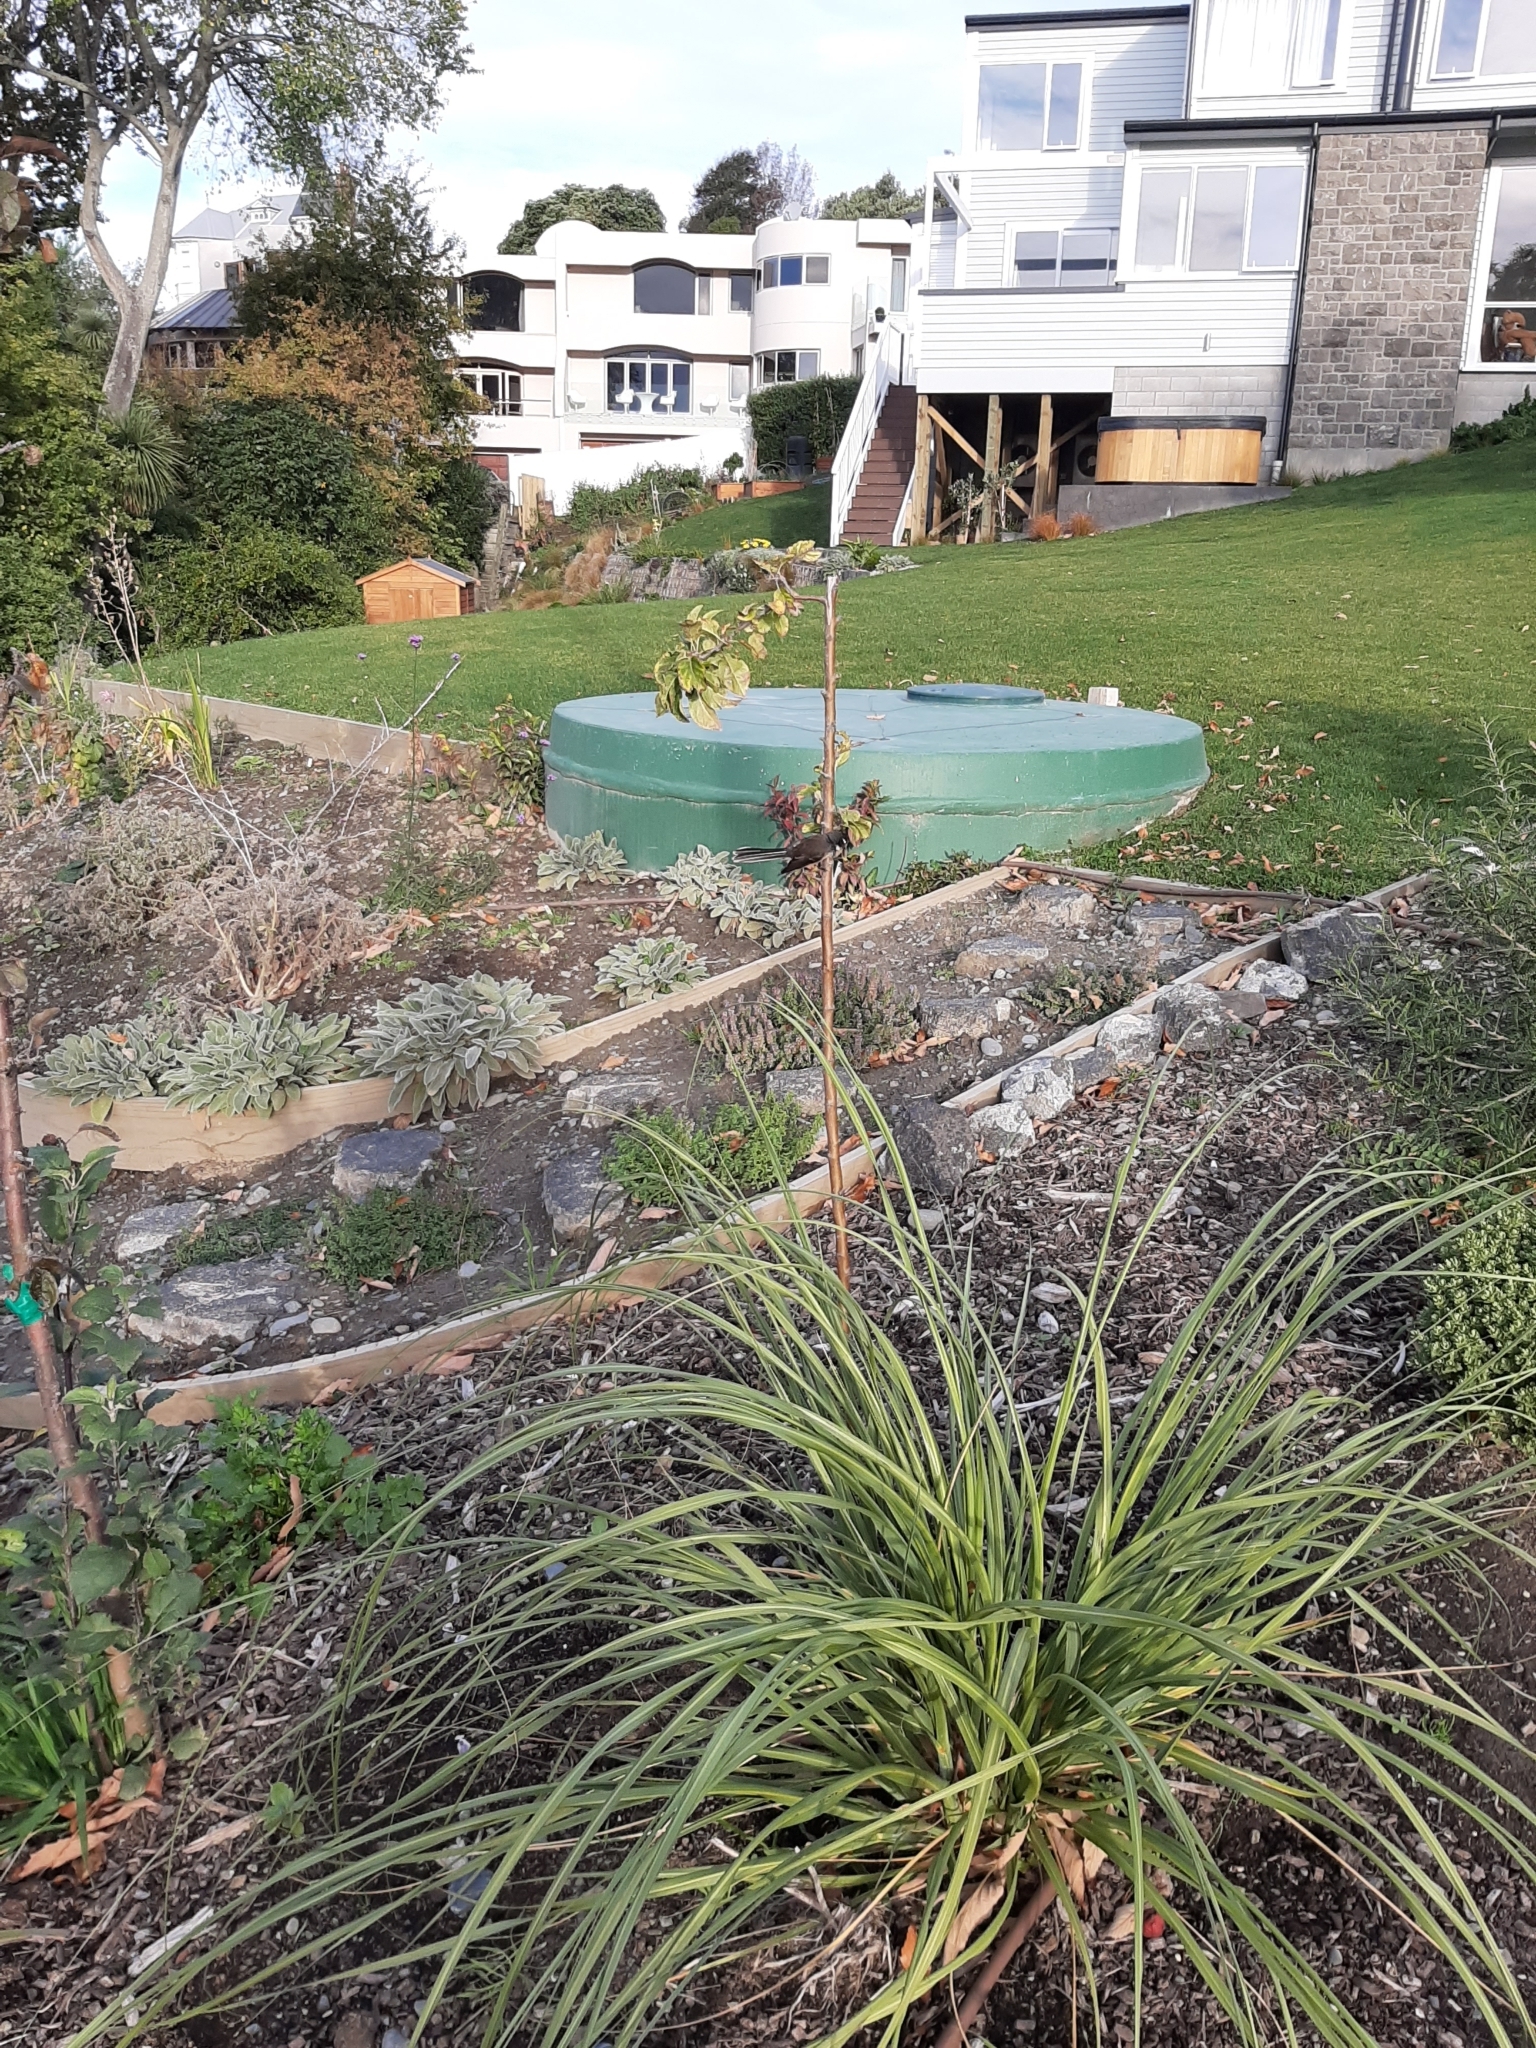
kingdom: Animalia
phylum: Chordata
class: Aves
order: Passeriformes
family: Rhipiduridae
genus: Rhipidura
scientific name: Rhipidura fuliginosa
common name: New zealand fantail
